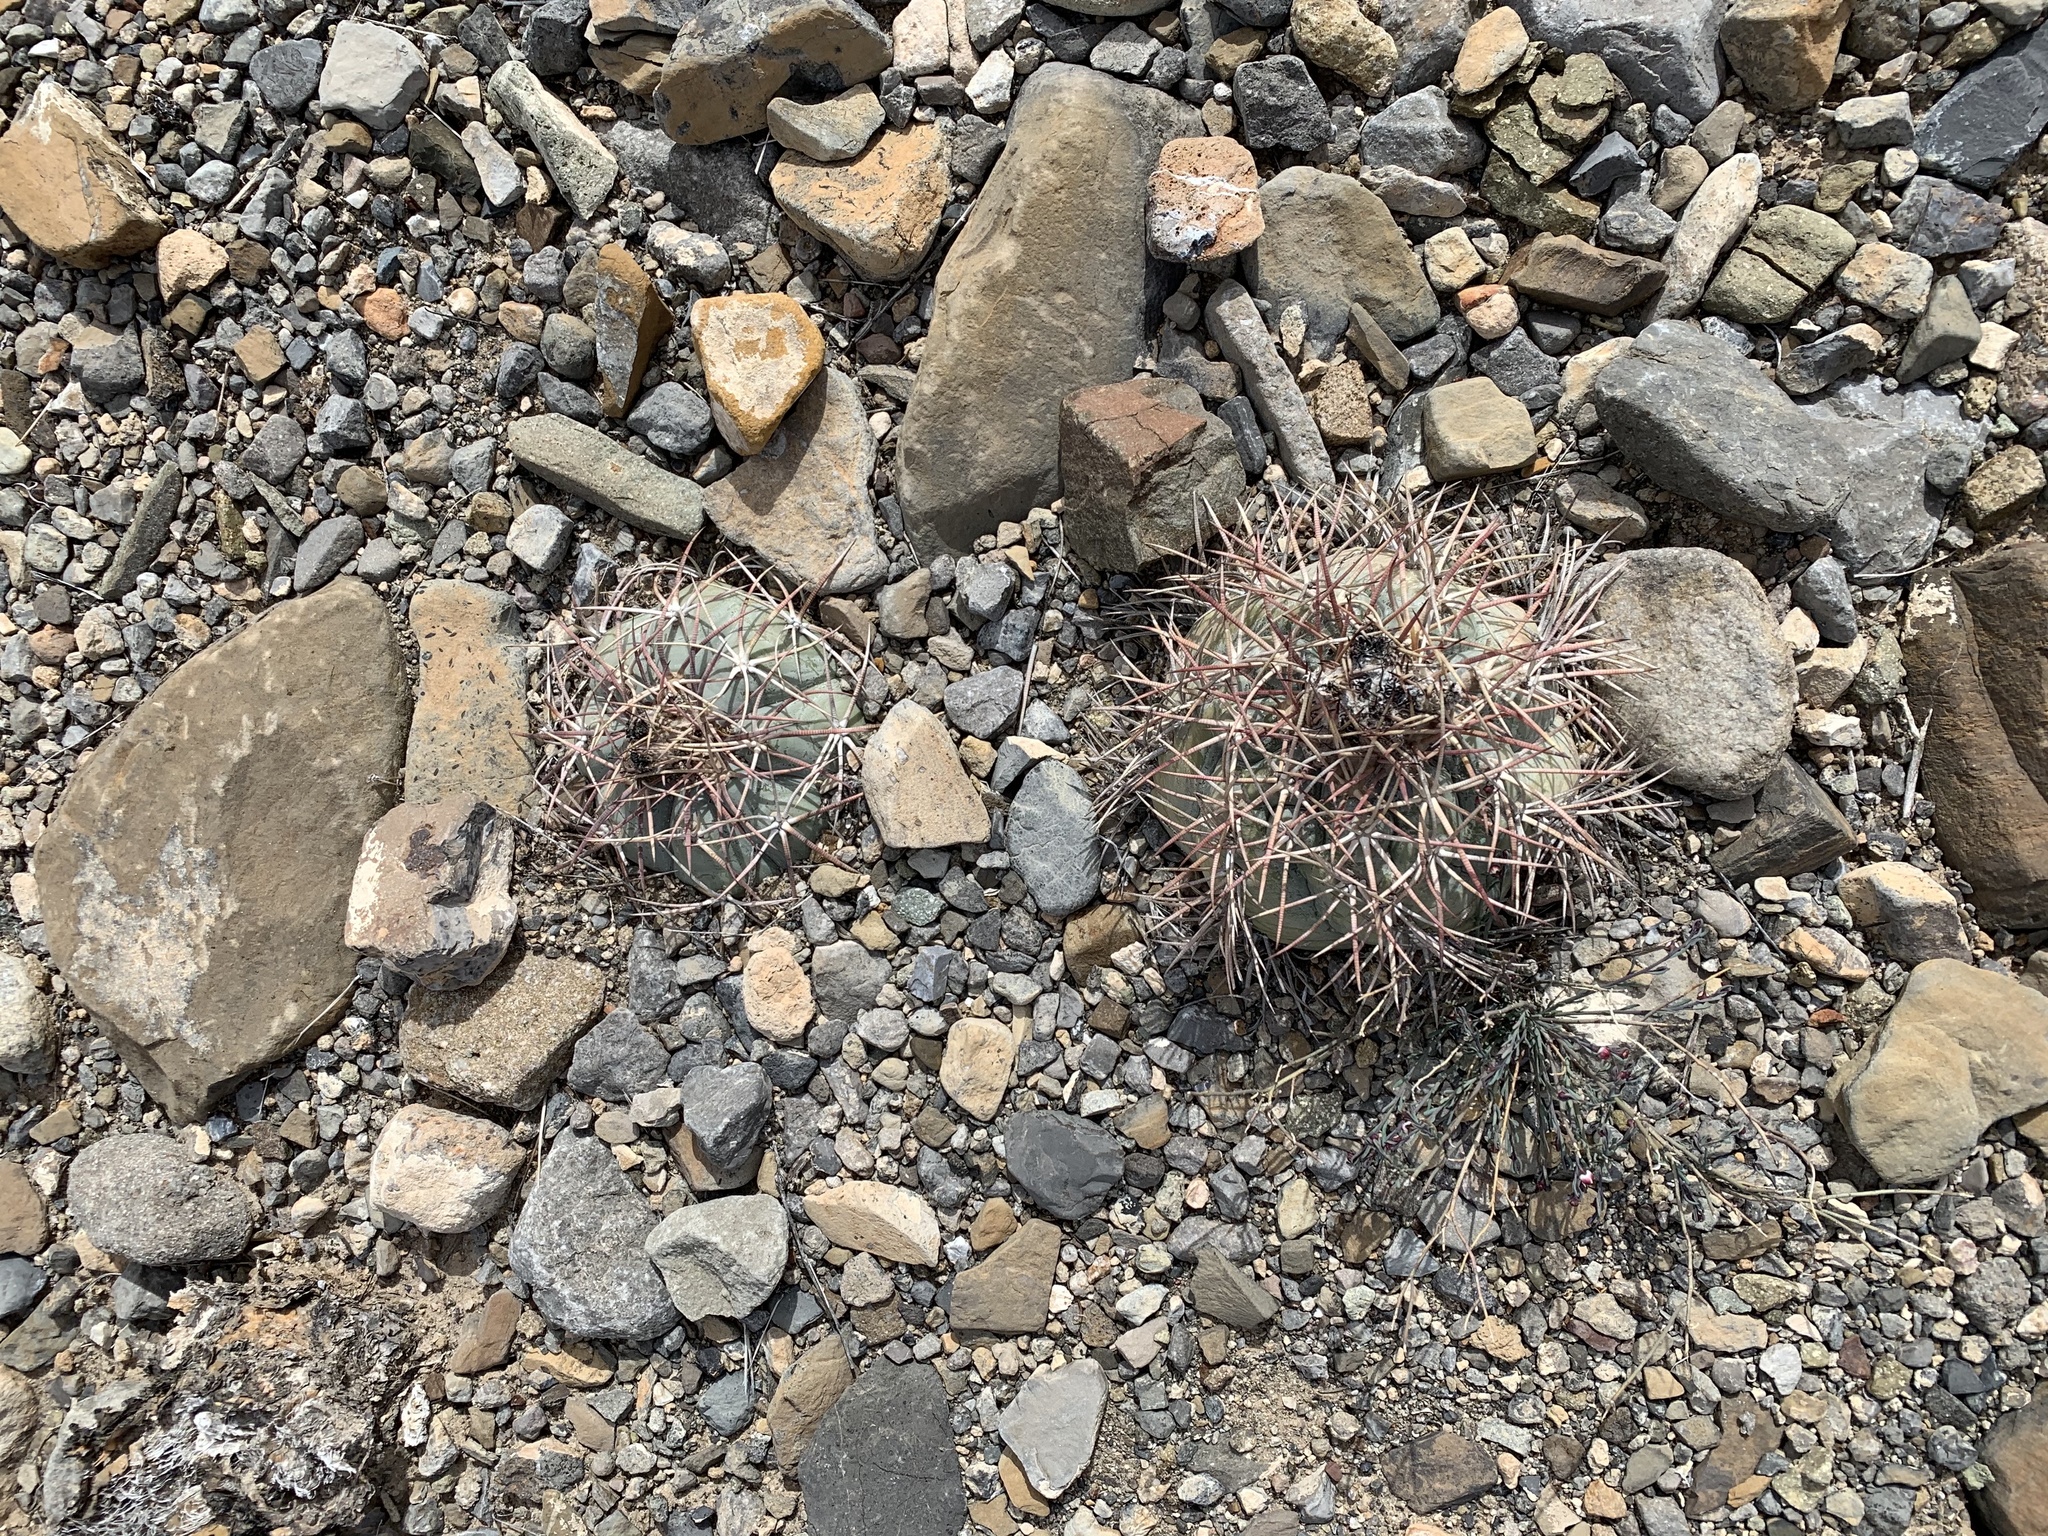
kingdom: Plantae
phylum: Tracheophyta
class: Magnoliopsida
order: Caryophyllales
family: Cactaceae
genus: Echinocactus
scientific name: Echinocactus horizonthalonius
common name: Devilshead
